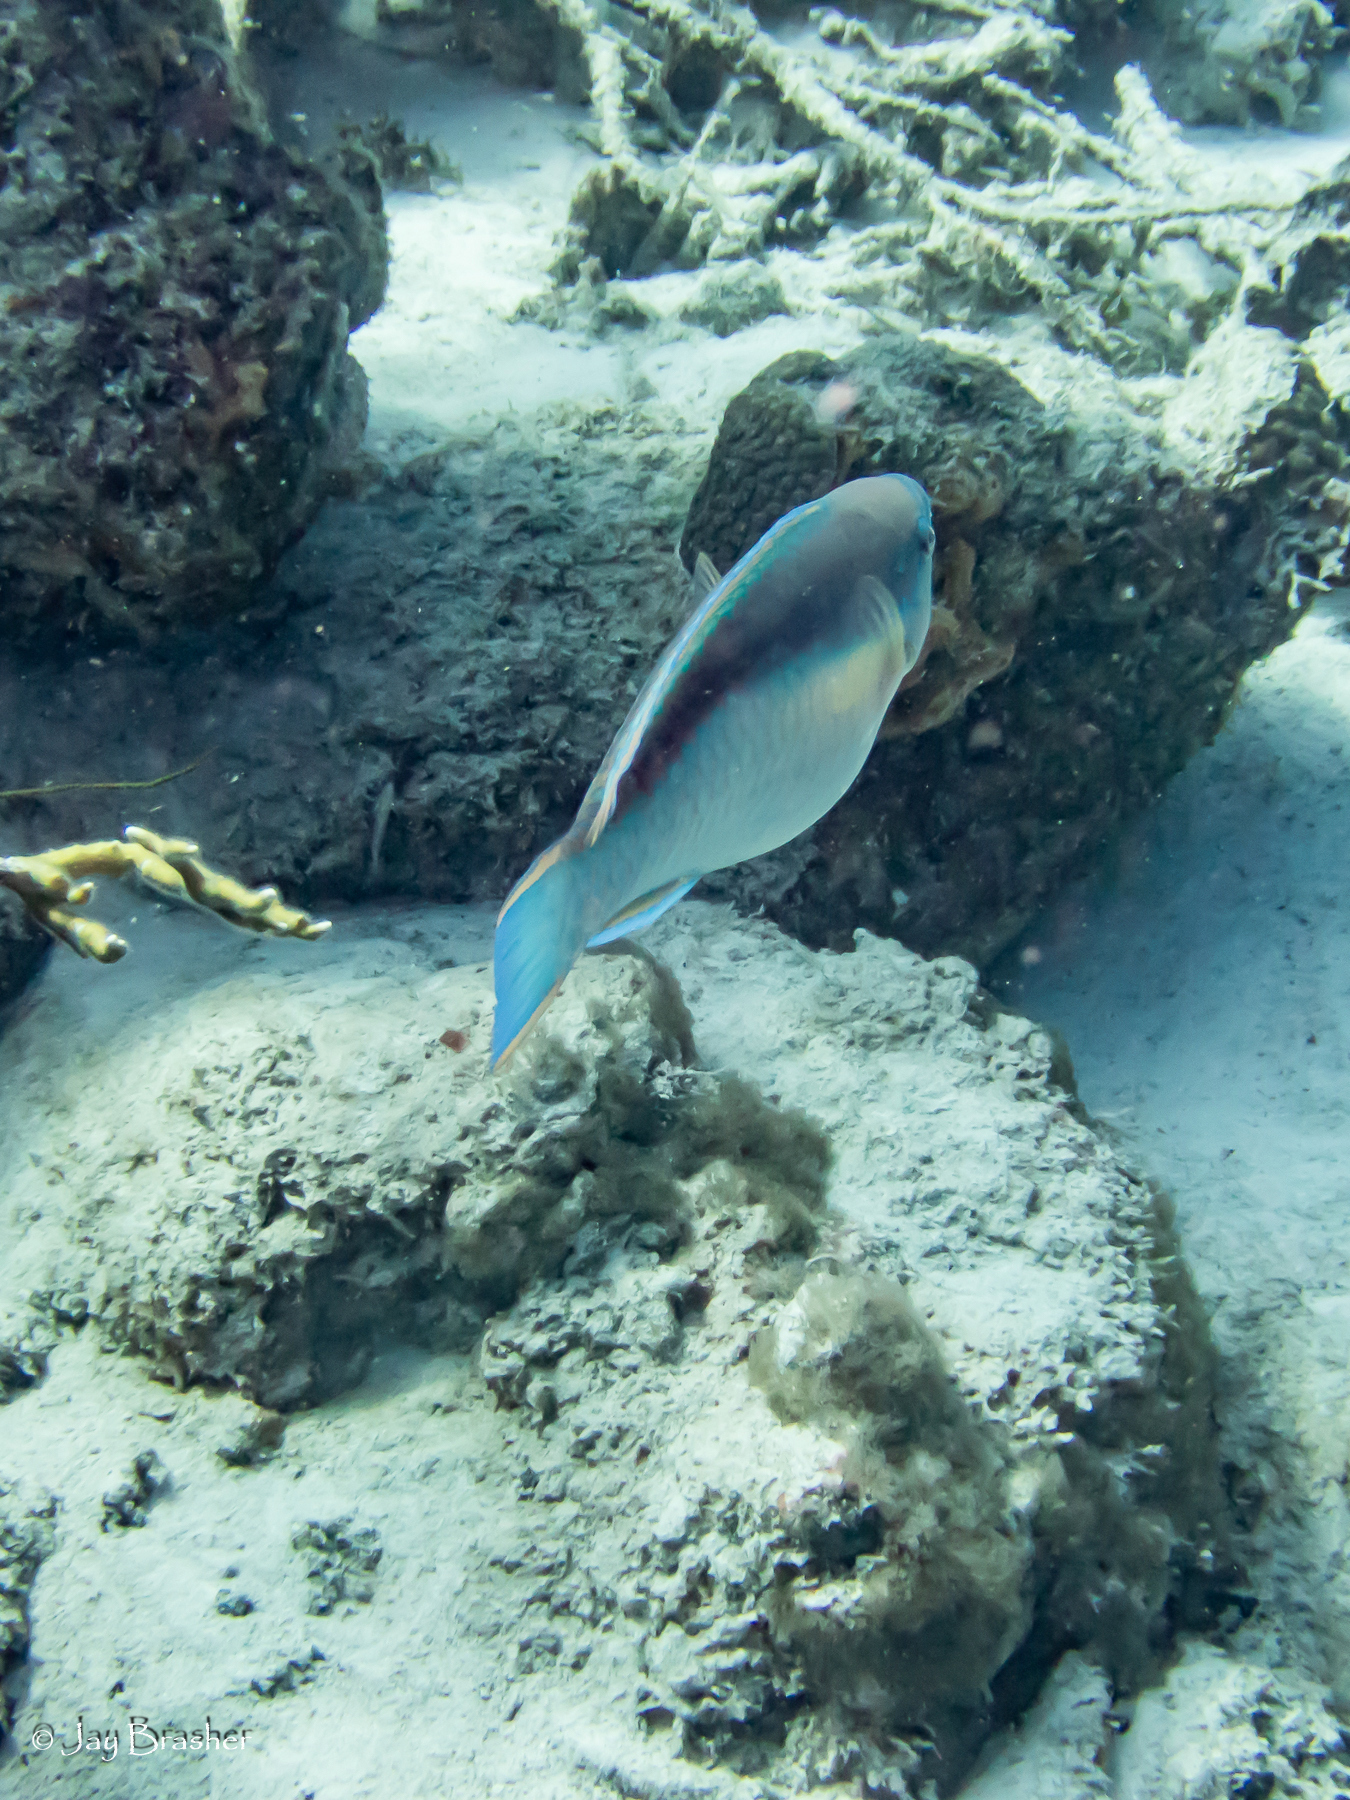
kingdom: Animalia
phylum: Chordata
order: Perciformes
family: Scaridae
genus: Scarus
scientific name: Scarus taeniopterus
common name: Princess parrotfish
